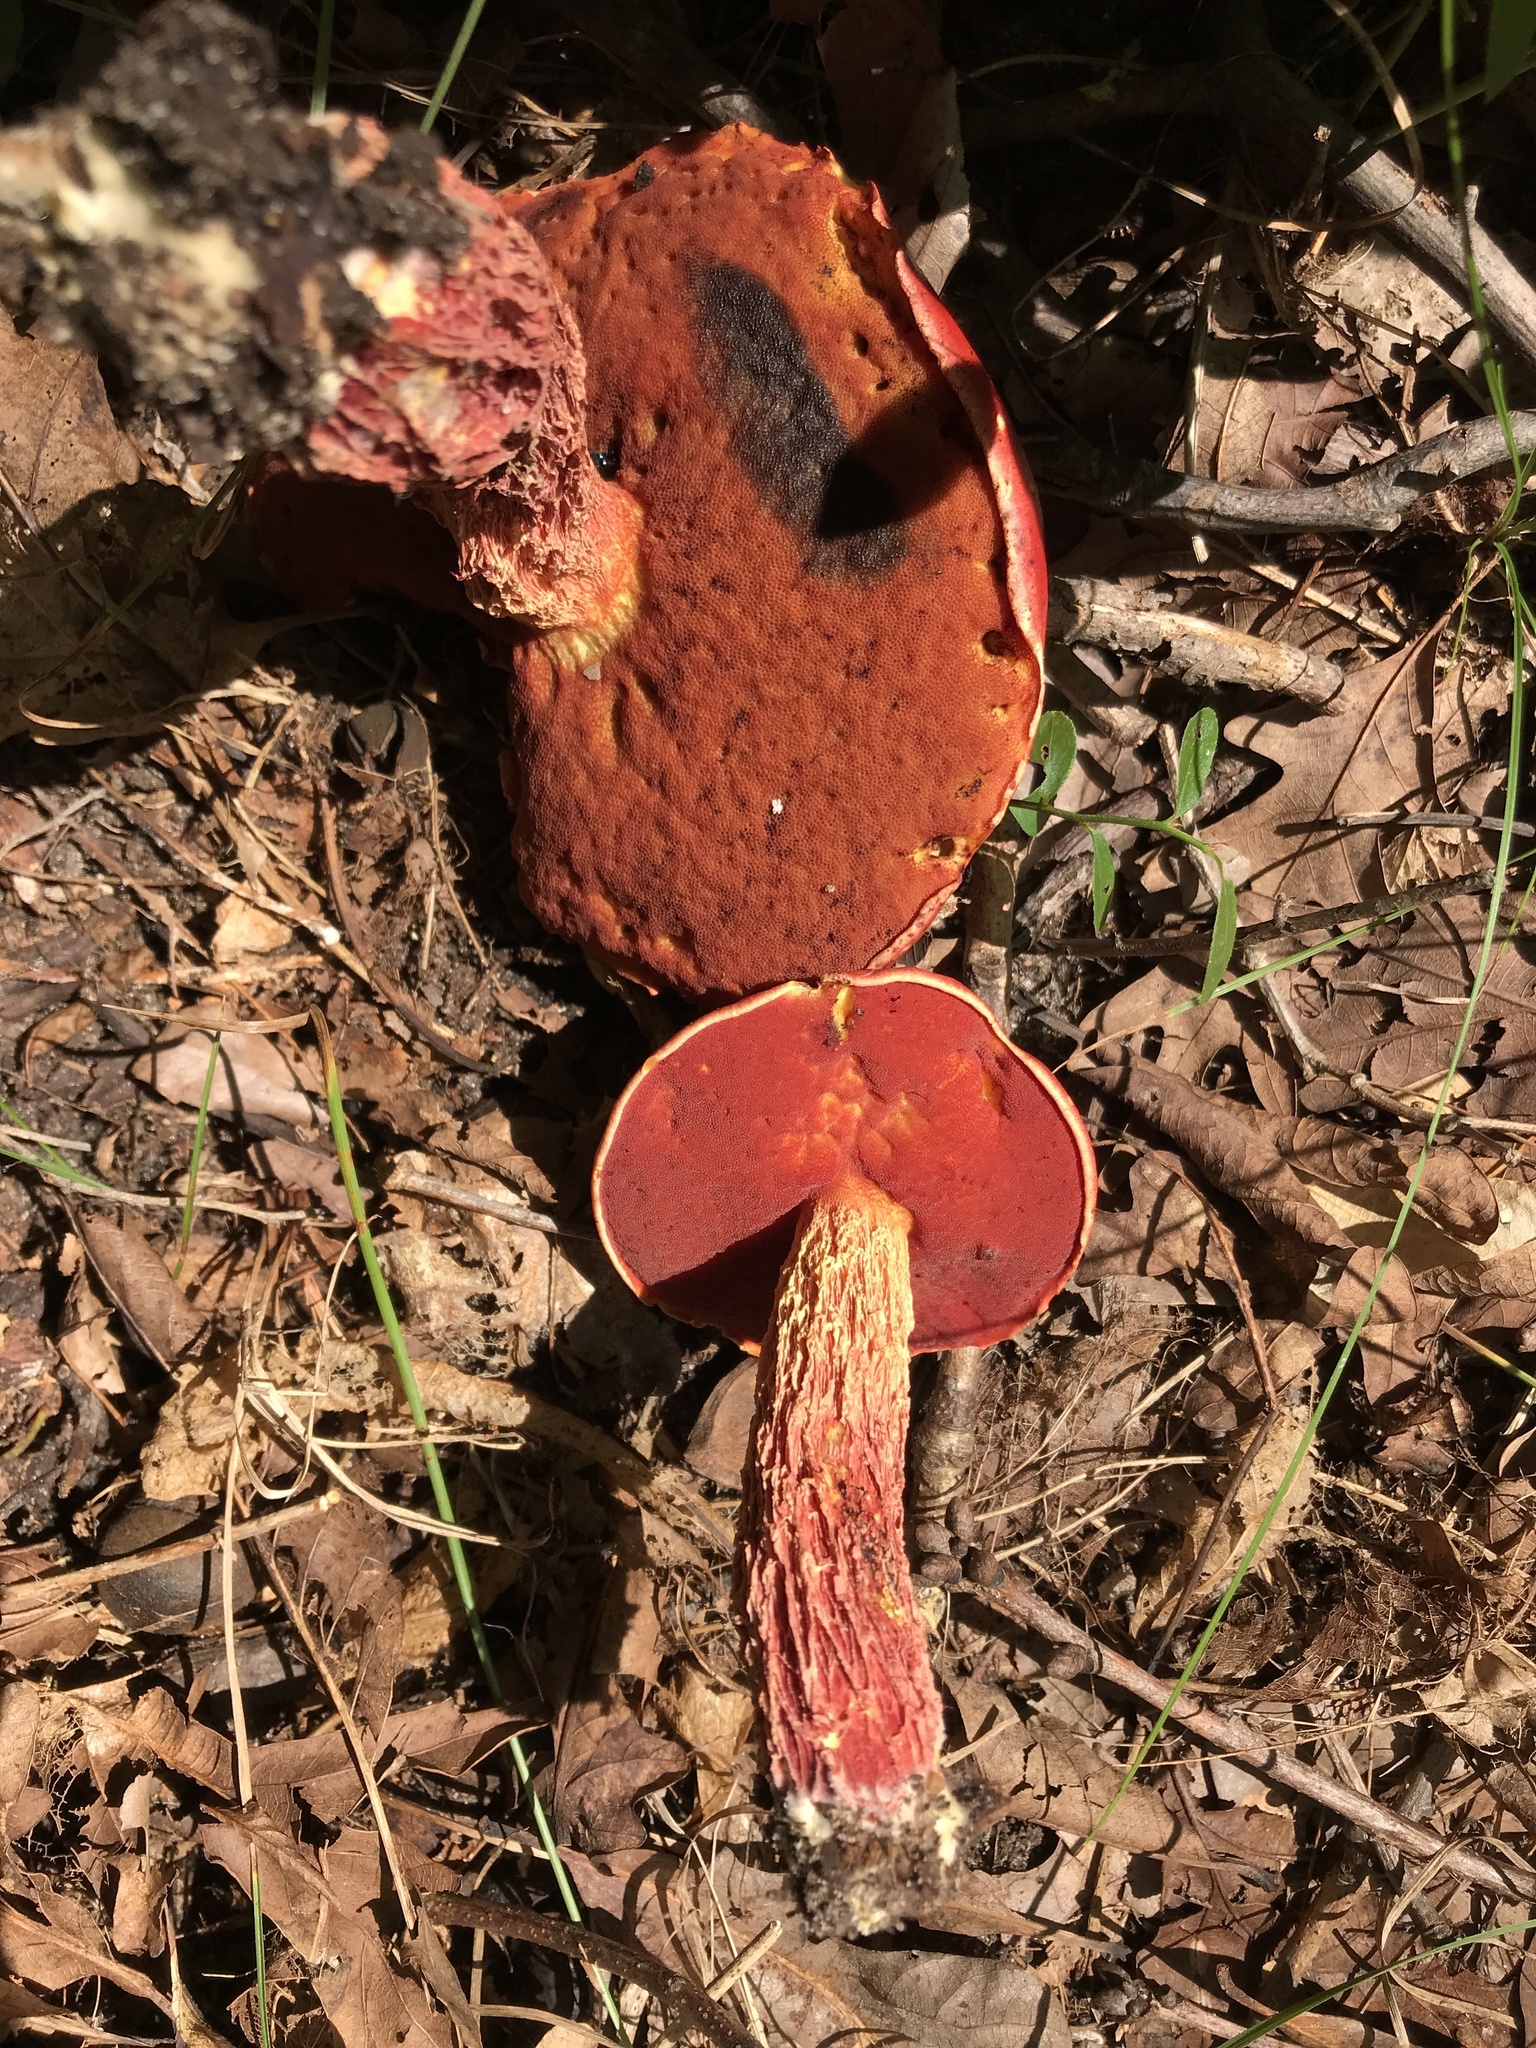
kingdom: Fungi
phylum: Basidiomycota
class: Agaricomycetes
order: Boletales
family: Boletaceae
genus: Butyriboletus
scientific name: Butyriboletus frostii
